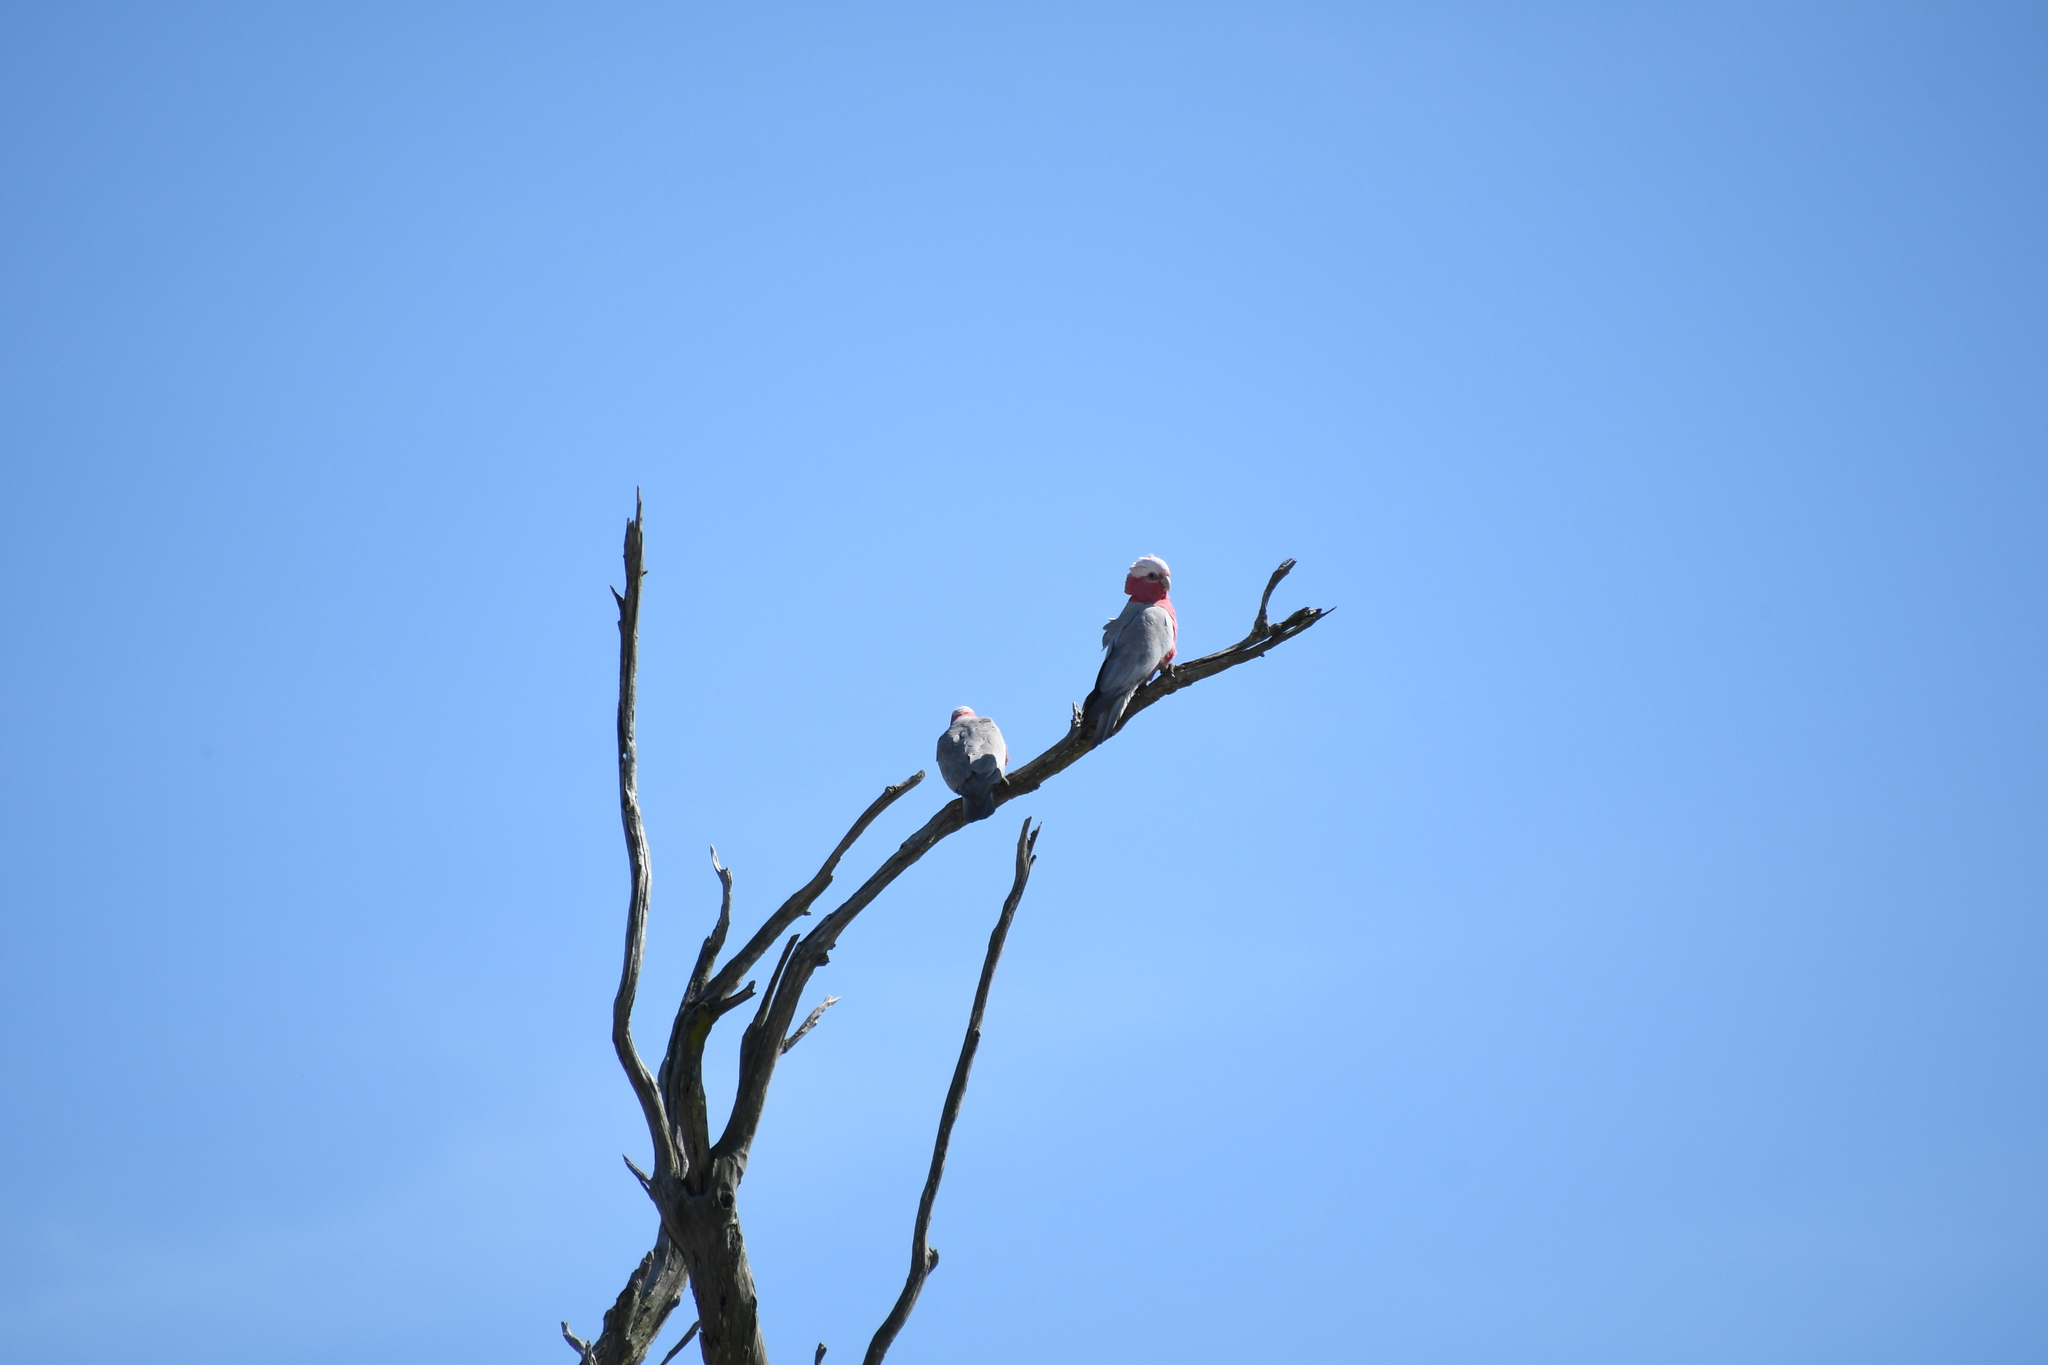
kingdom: Animalia
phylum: Chordata
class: Aves
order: Psittaciformes
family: Psittacidae
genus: Eolophus
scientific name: Eolophus roseicapilla
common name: Galah
